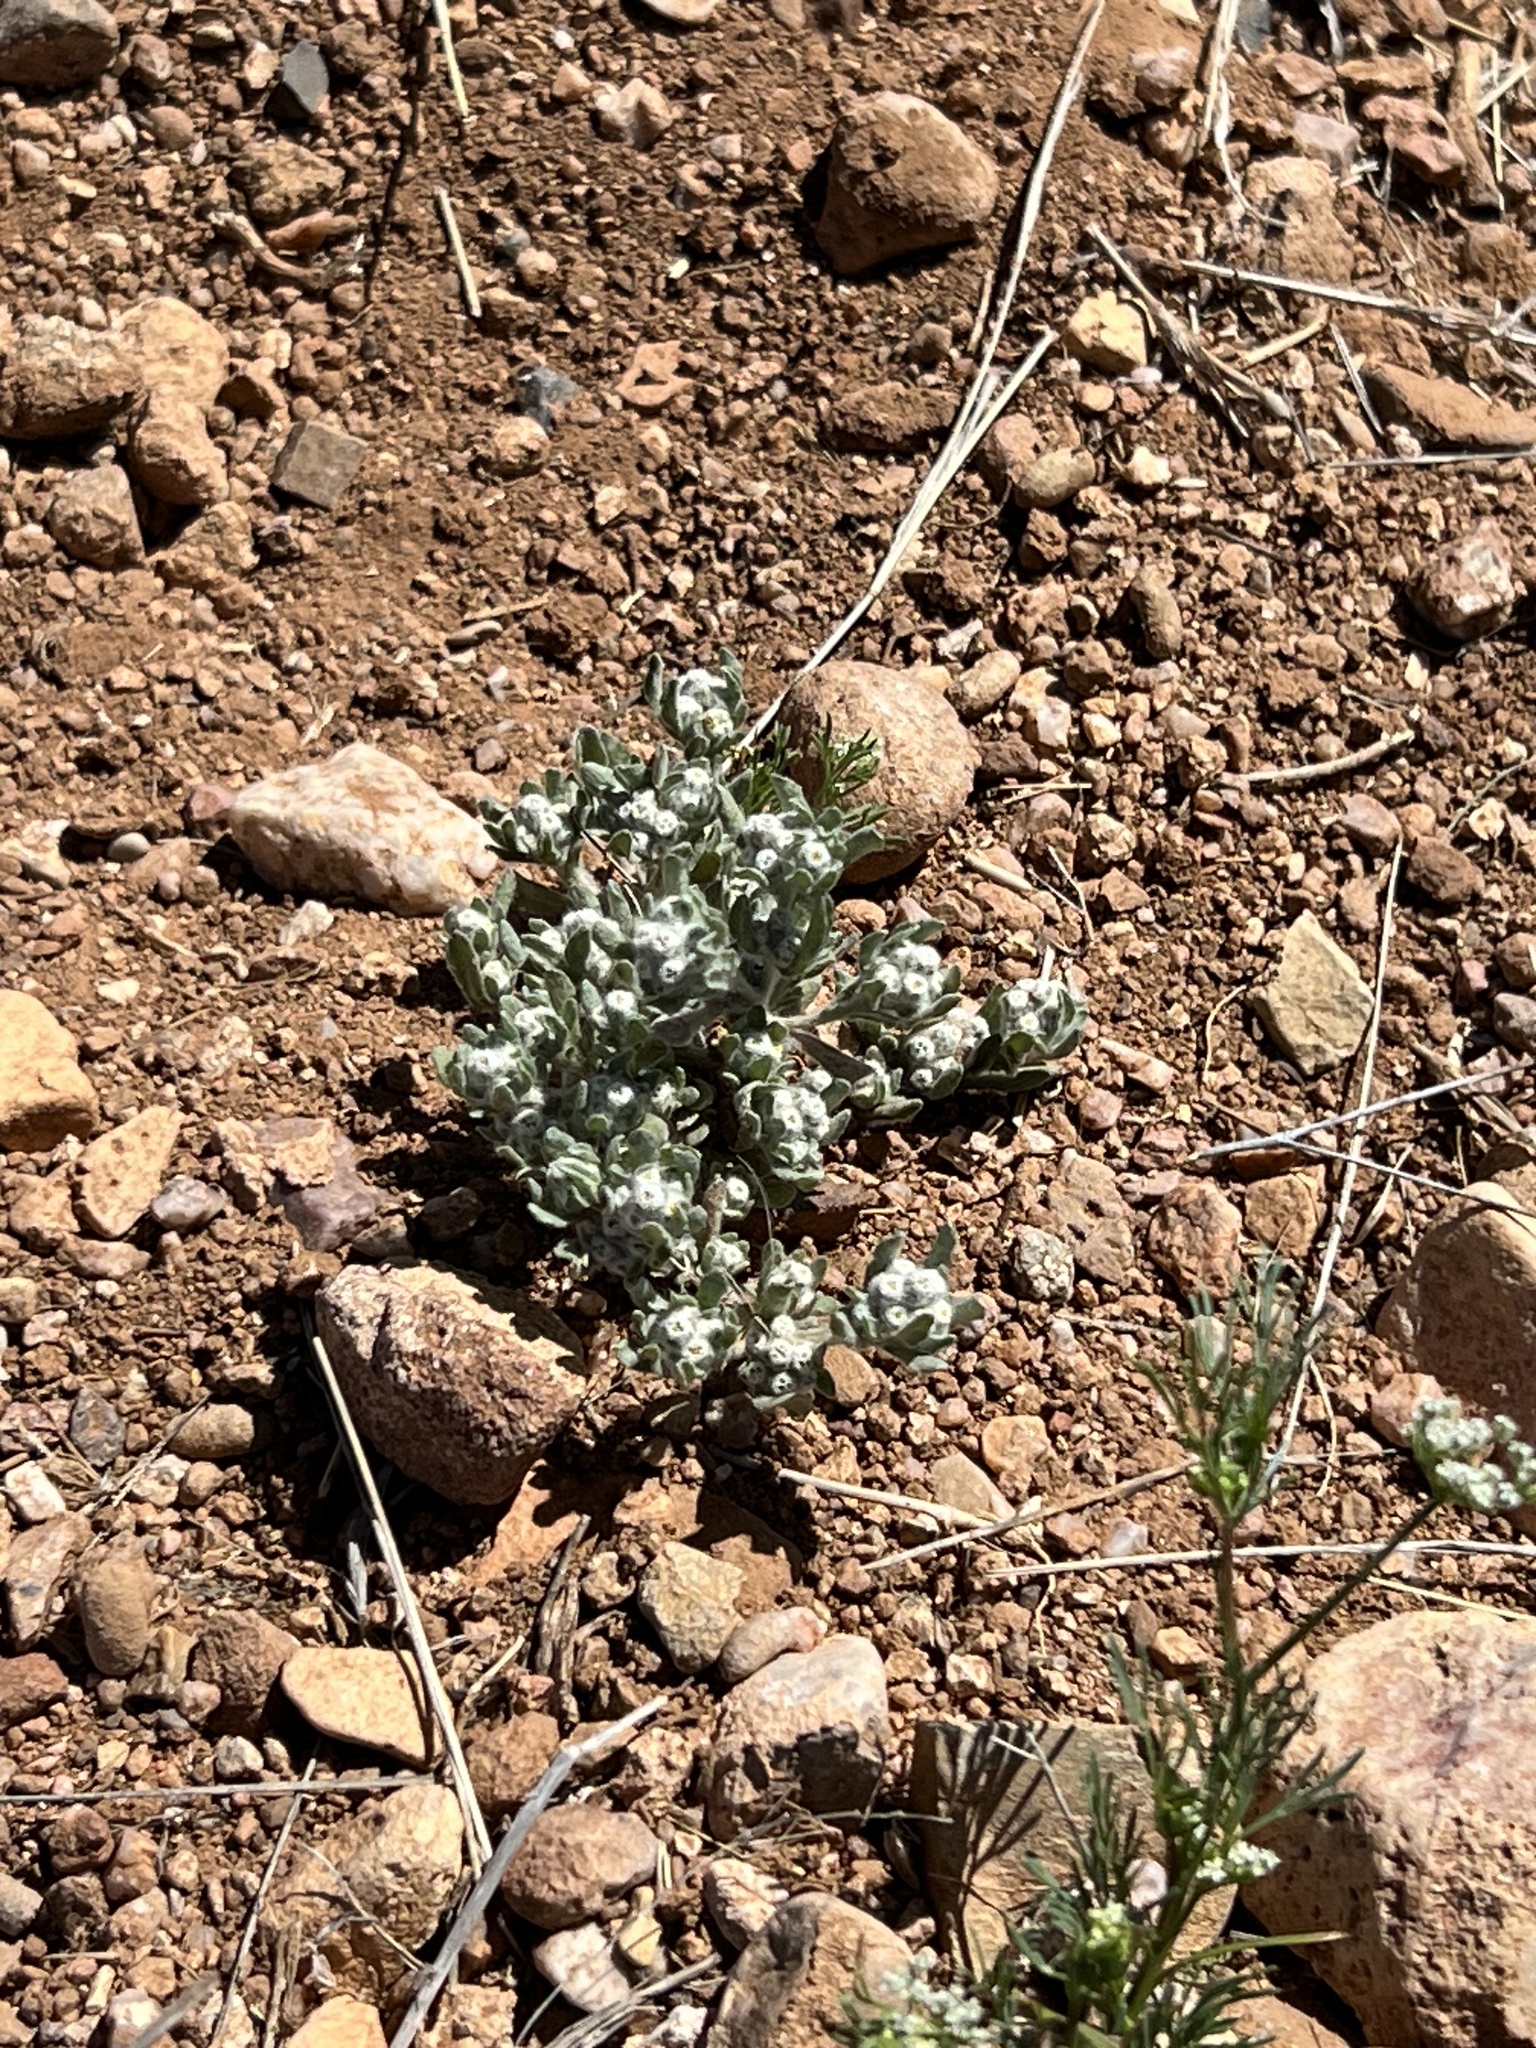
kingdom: Plantae
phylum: Tracheophyta
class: Magnoliopsida
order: Asterales
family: Asteraceae
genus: Diaperia
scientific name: Diaperia verna
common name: Many-stem rabbit-tobacco
